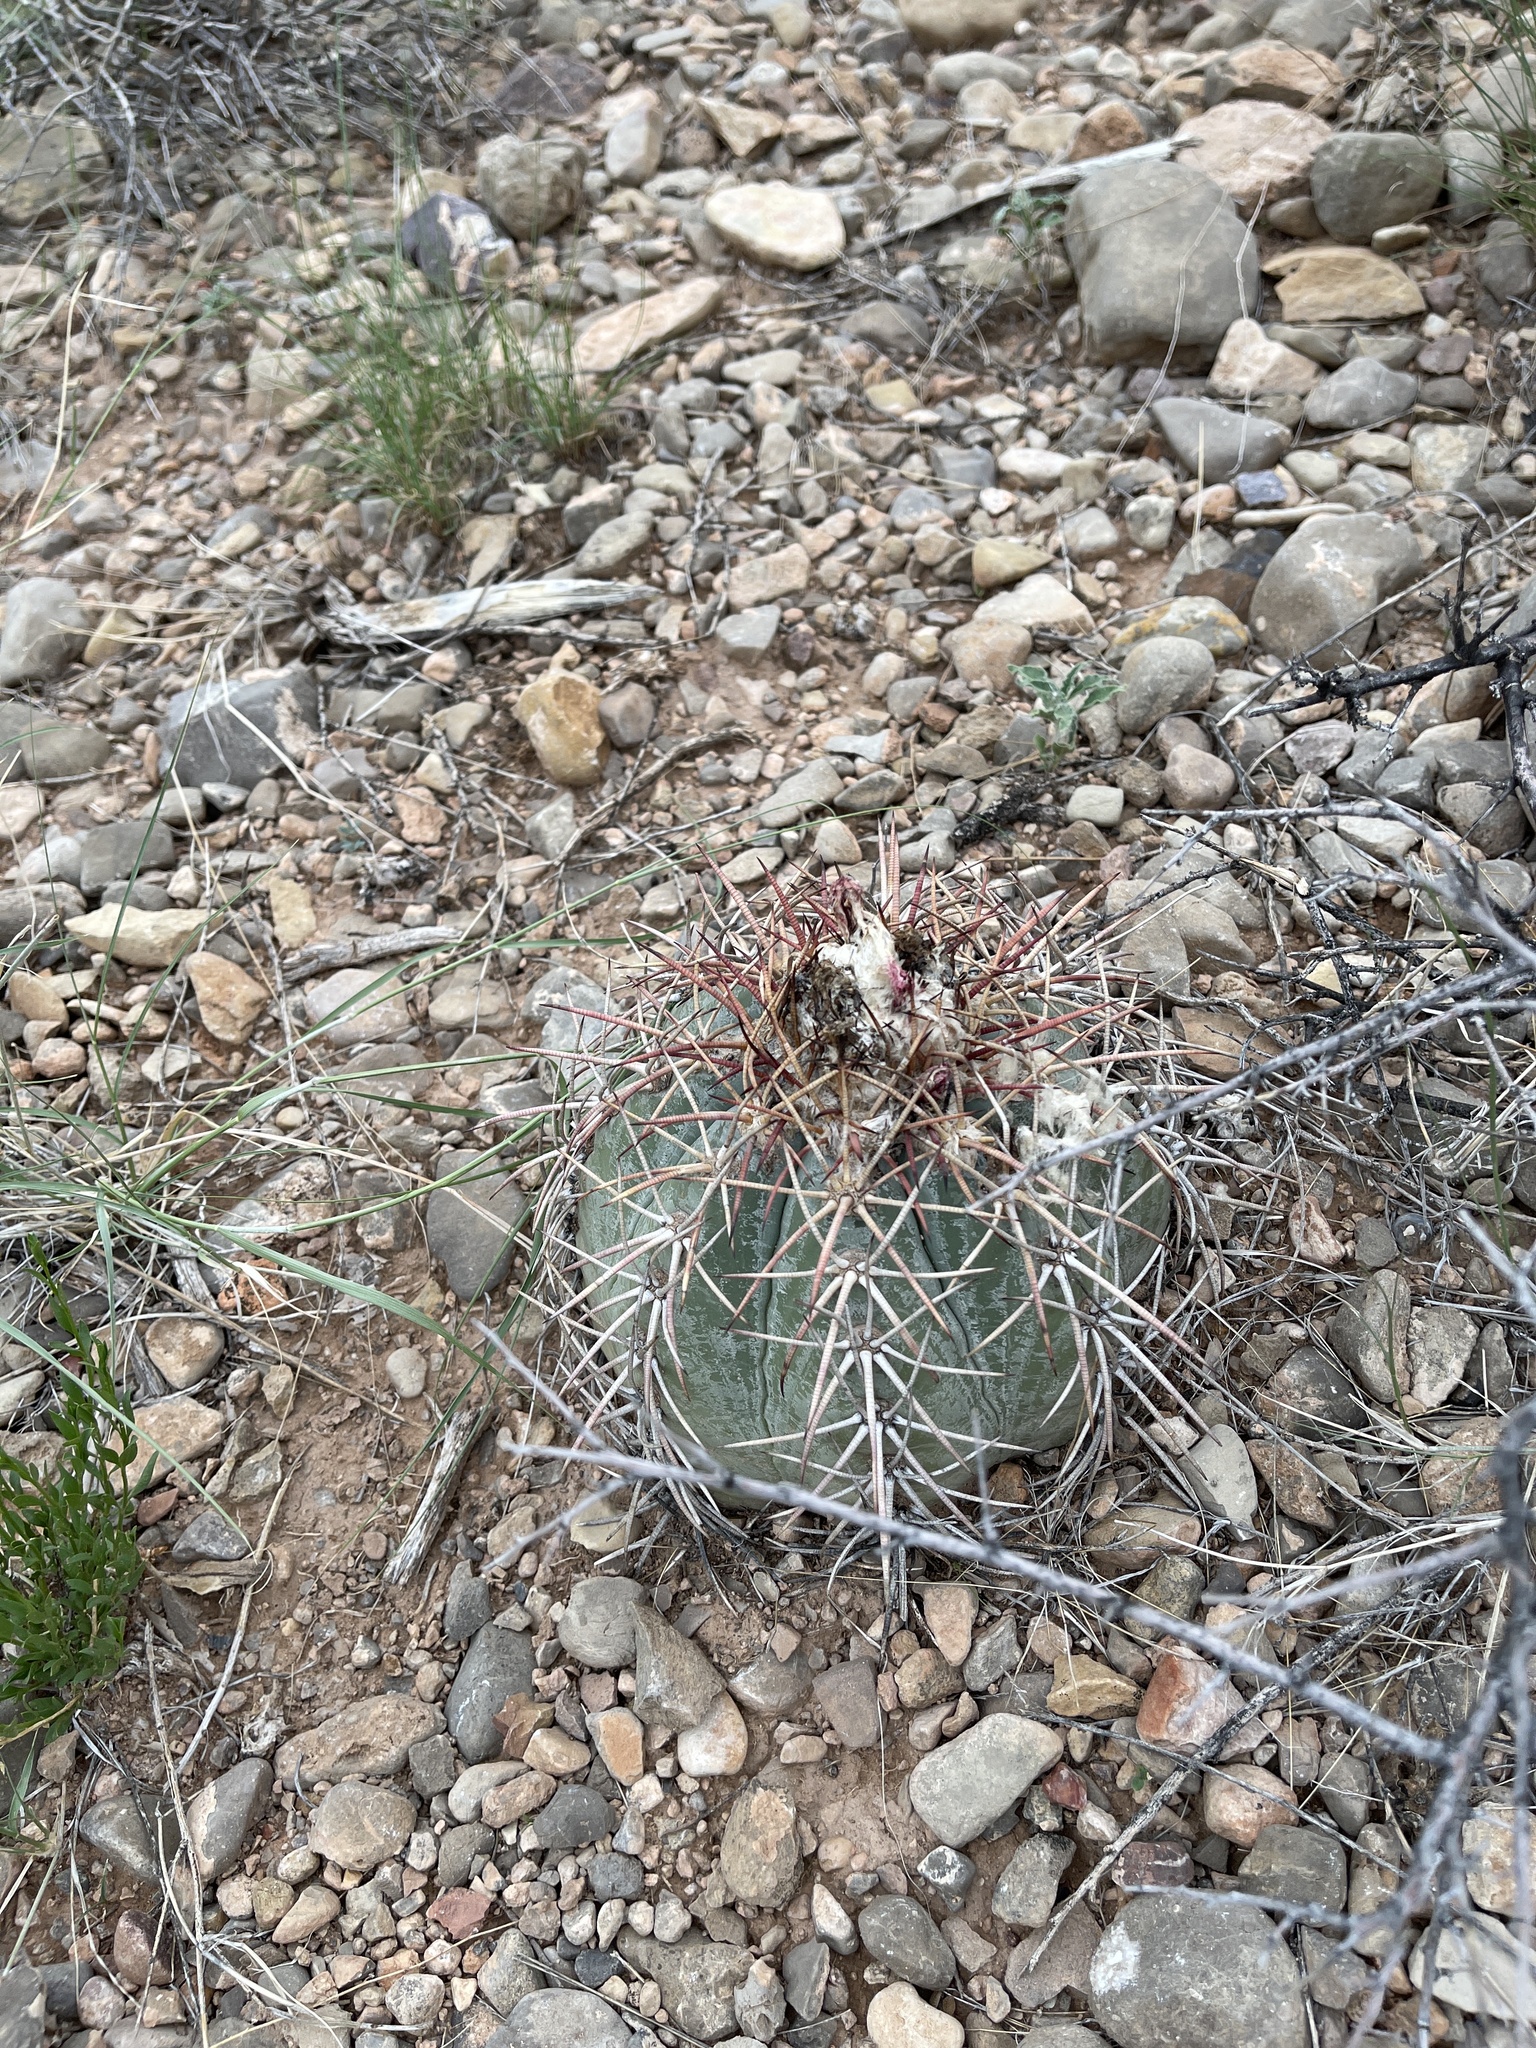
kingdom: Plantae
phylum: Tracheophyta
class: Magnoliopsida
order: Caryophyllales
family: Cactaceae
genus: Echinocactus
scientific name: Echinocactus horizonthalonius
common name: Devilshead
